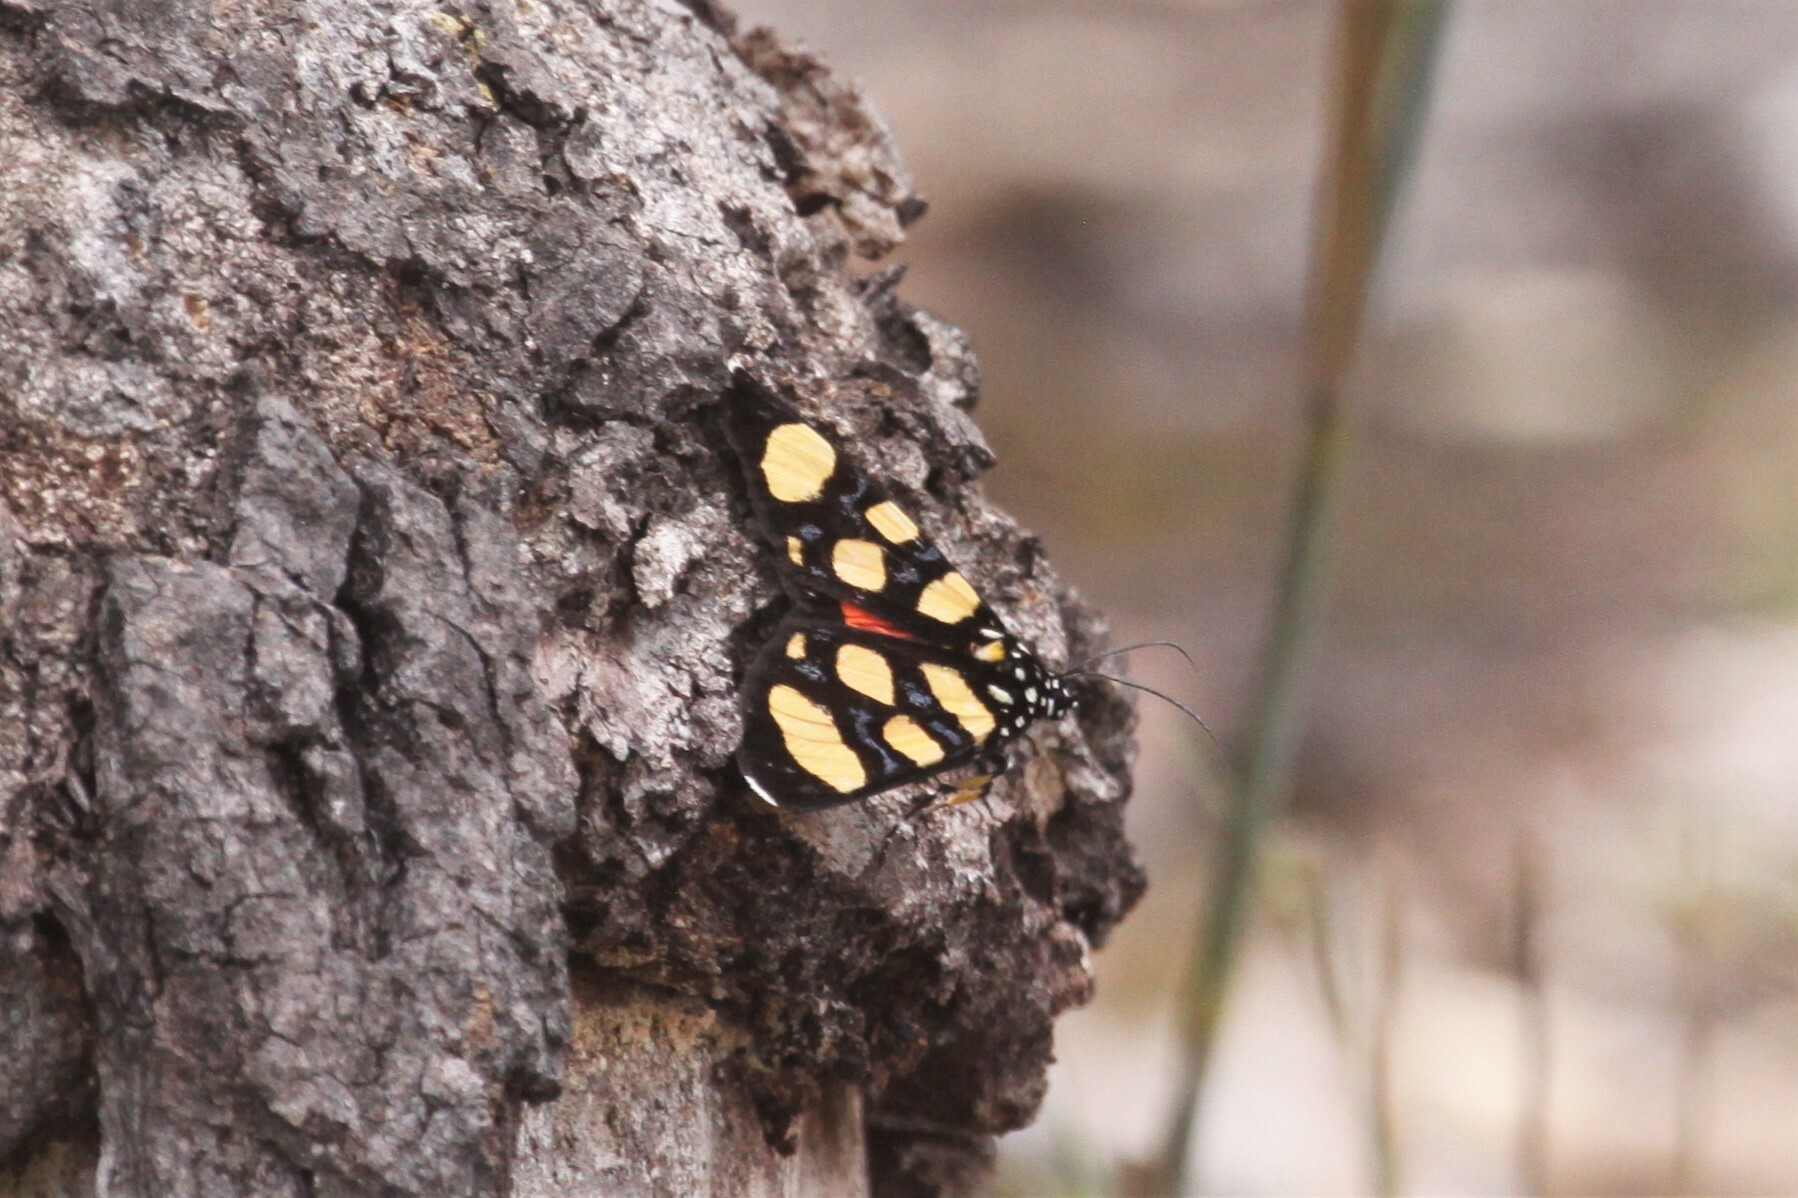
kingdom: Animalia
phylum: Arthropoda
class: Insecta
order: Lepidoptera
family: Noctuidae
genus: Heraclia
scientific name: Heraclia superba
